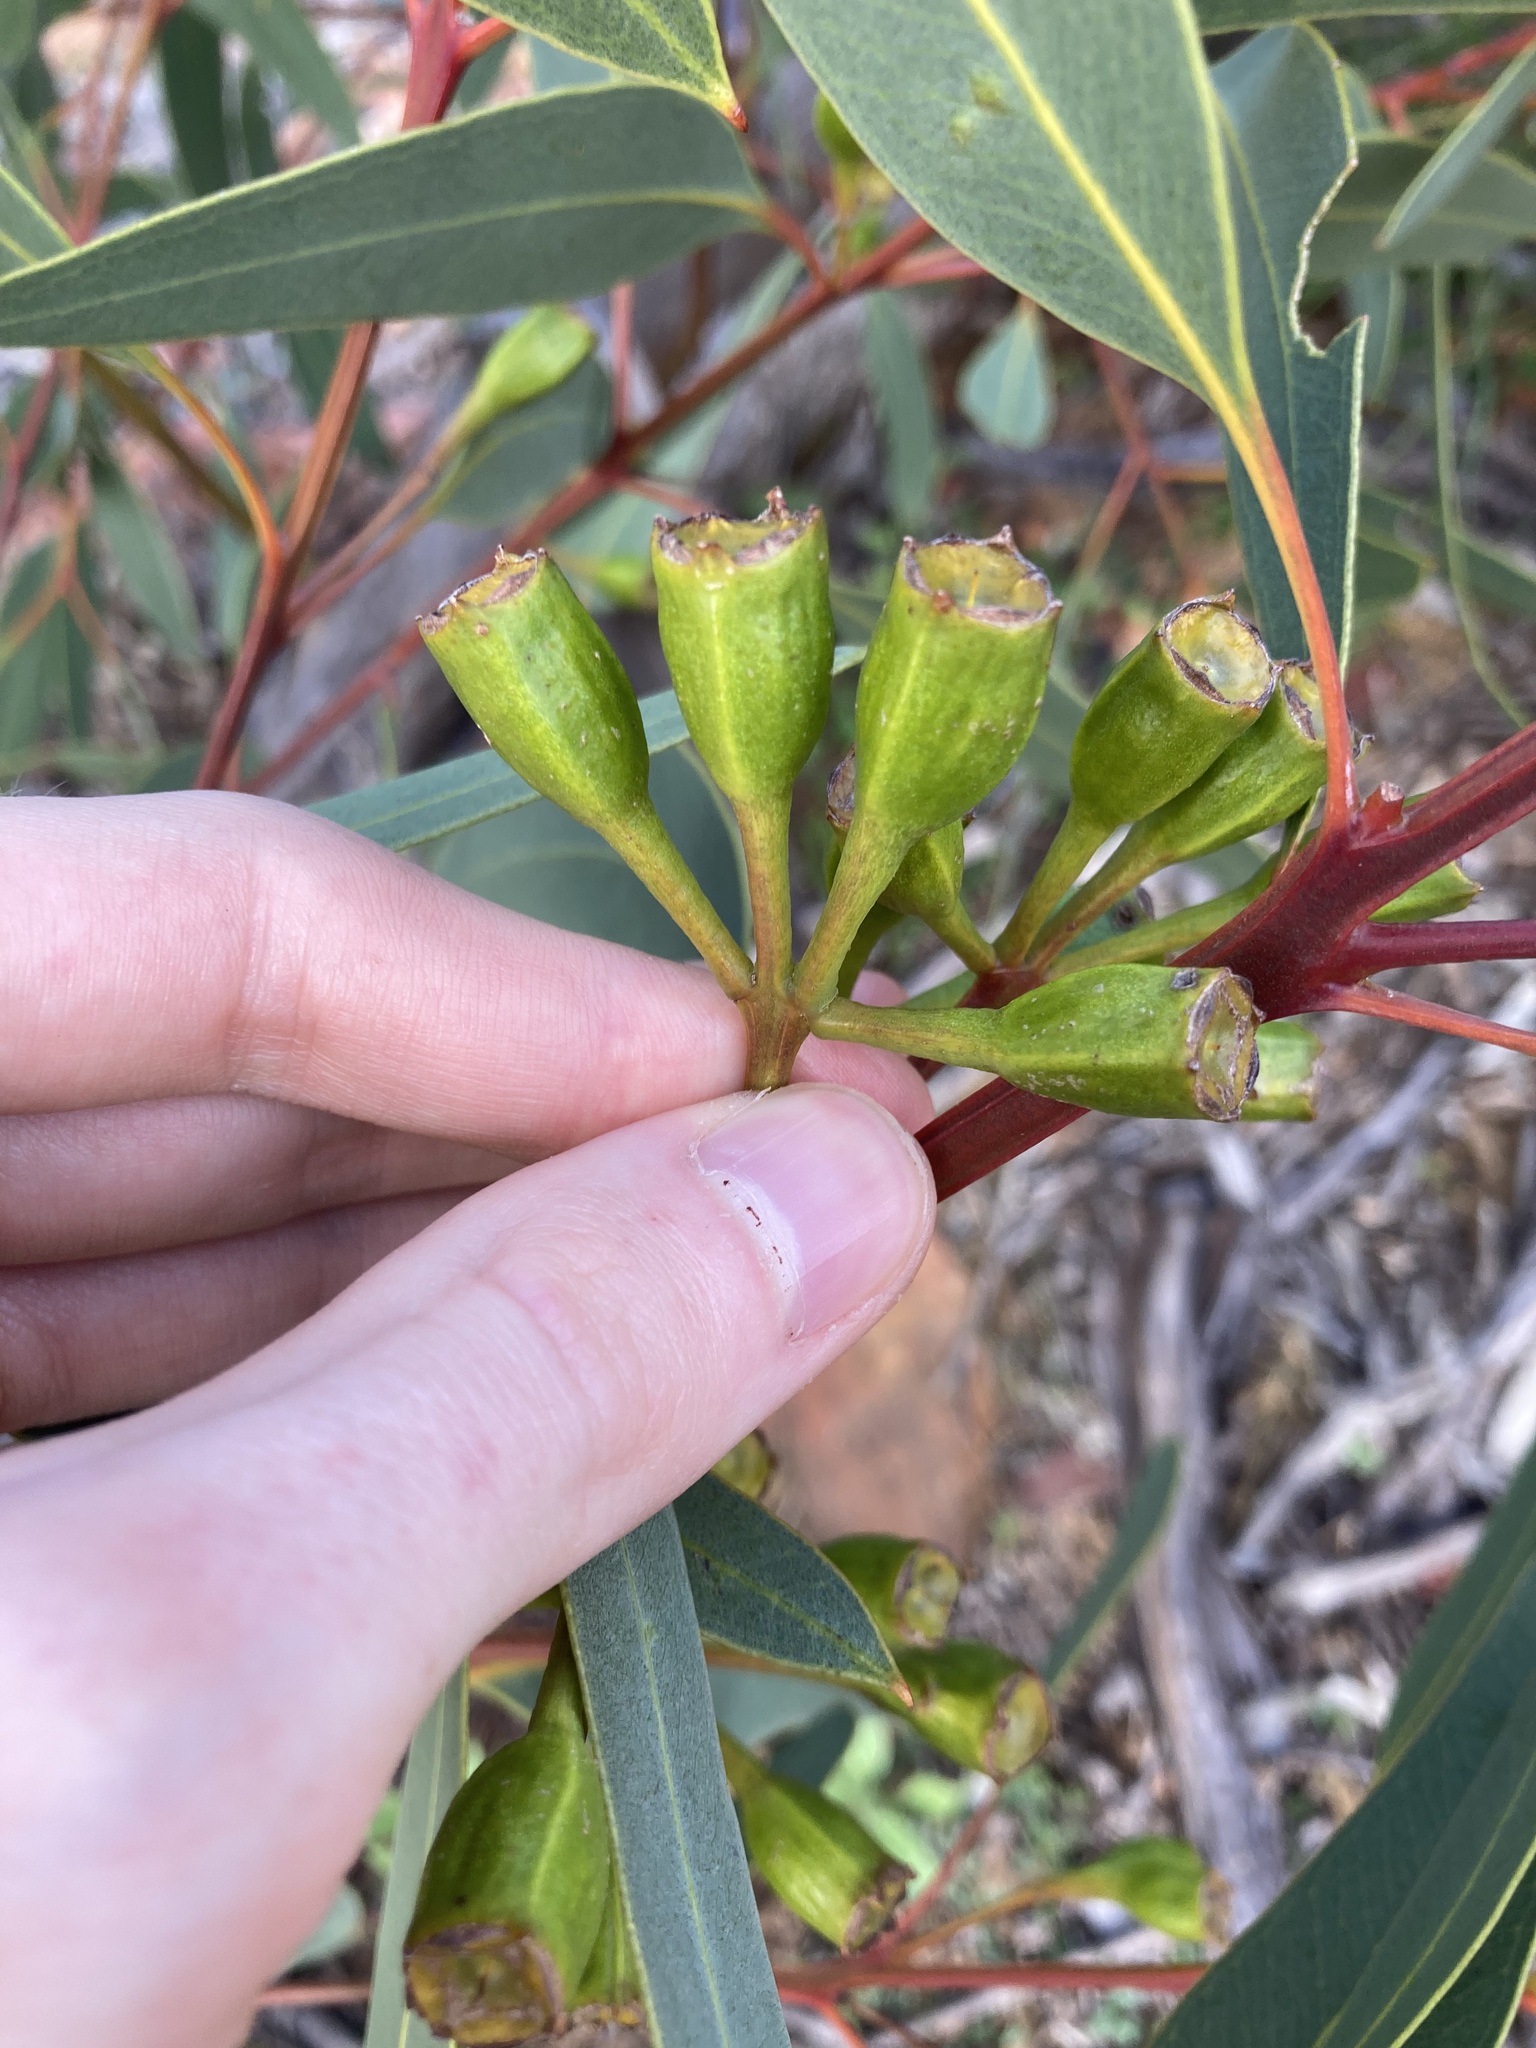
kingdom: Plantae
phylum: Tracheophyta
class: Magnoliopsida
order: Myrtales
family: Myrtaceae
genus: Eucalyptus
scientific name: Eucalyptus gittinsii
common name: Northern sandplain mallee
